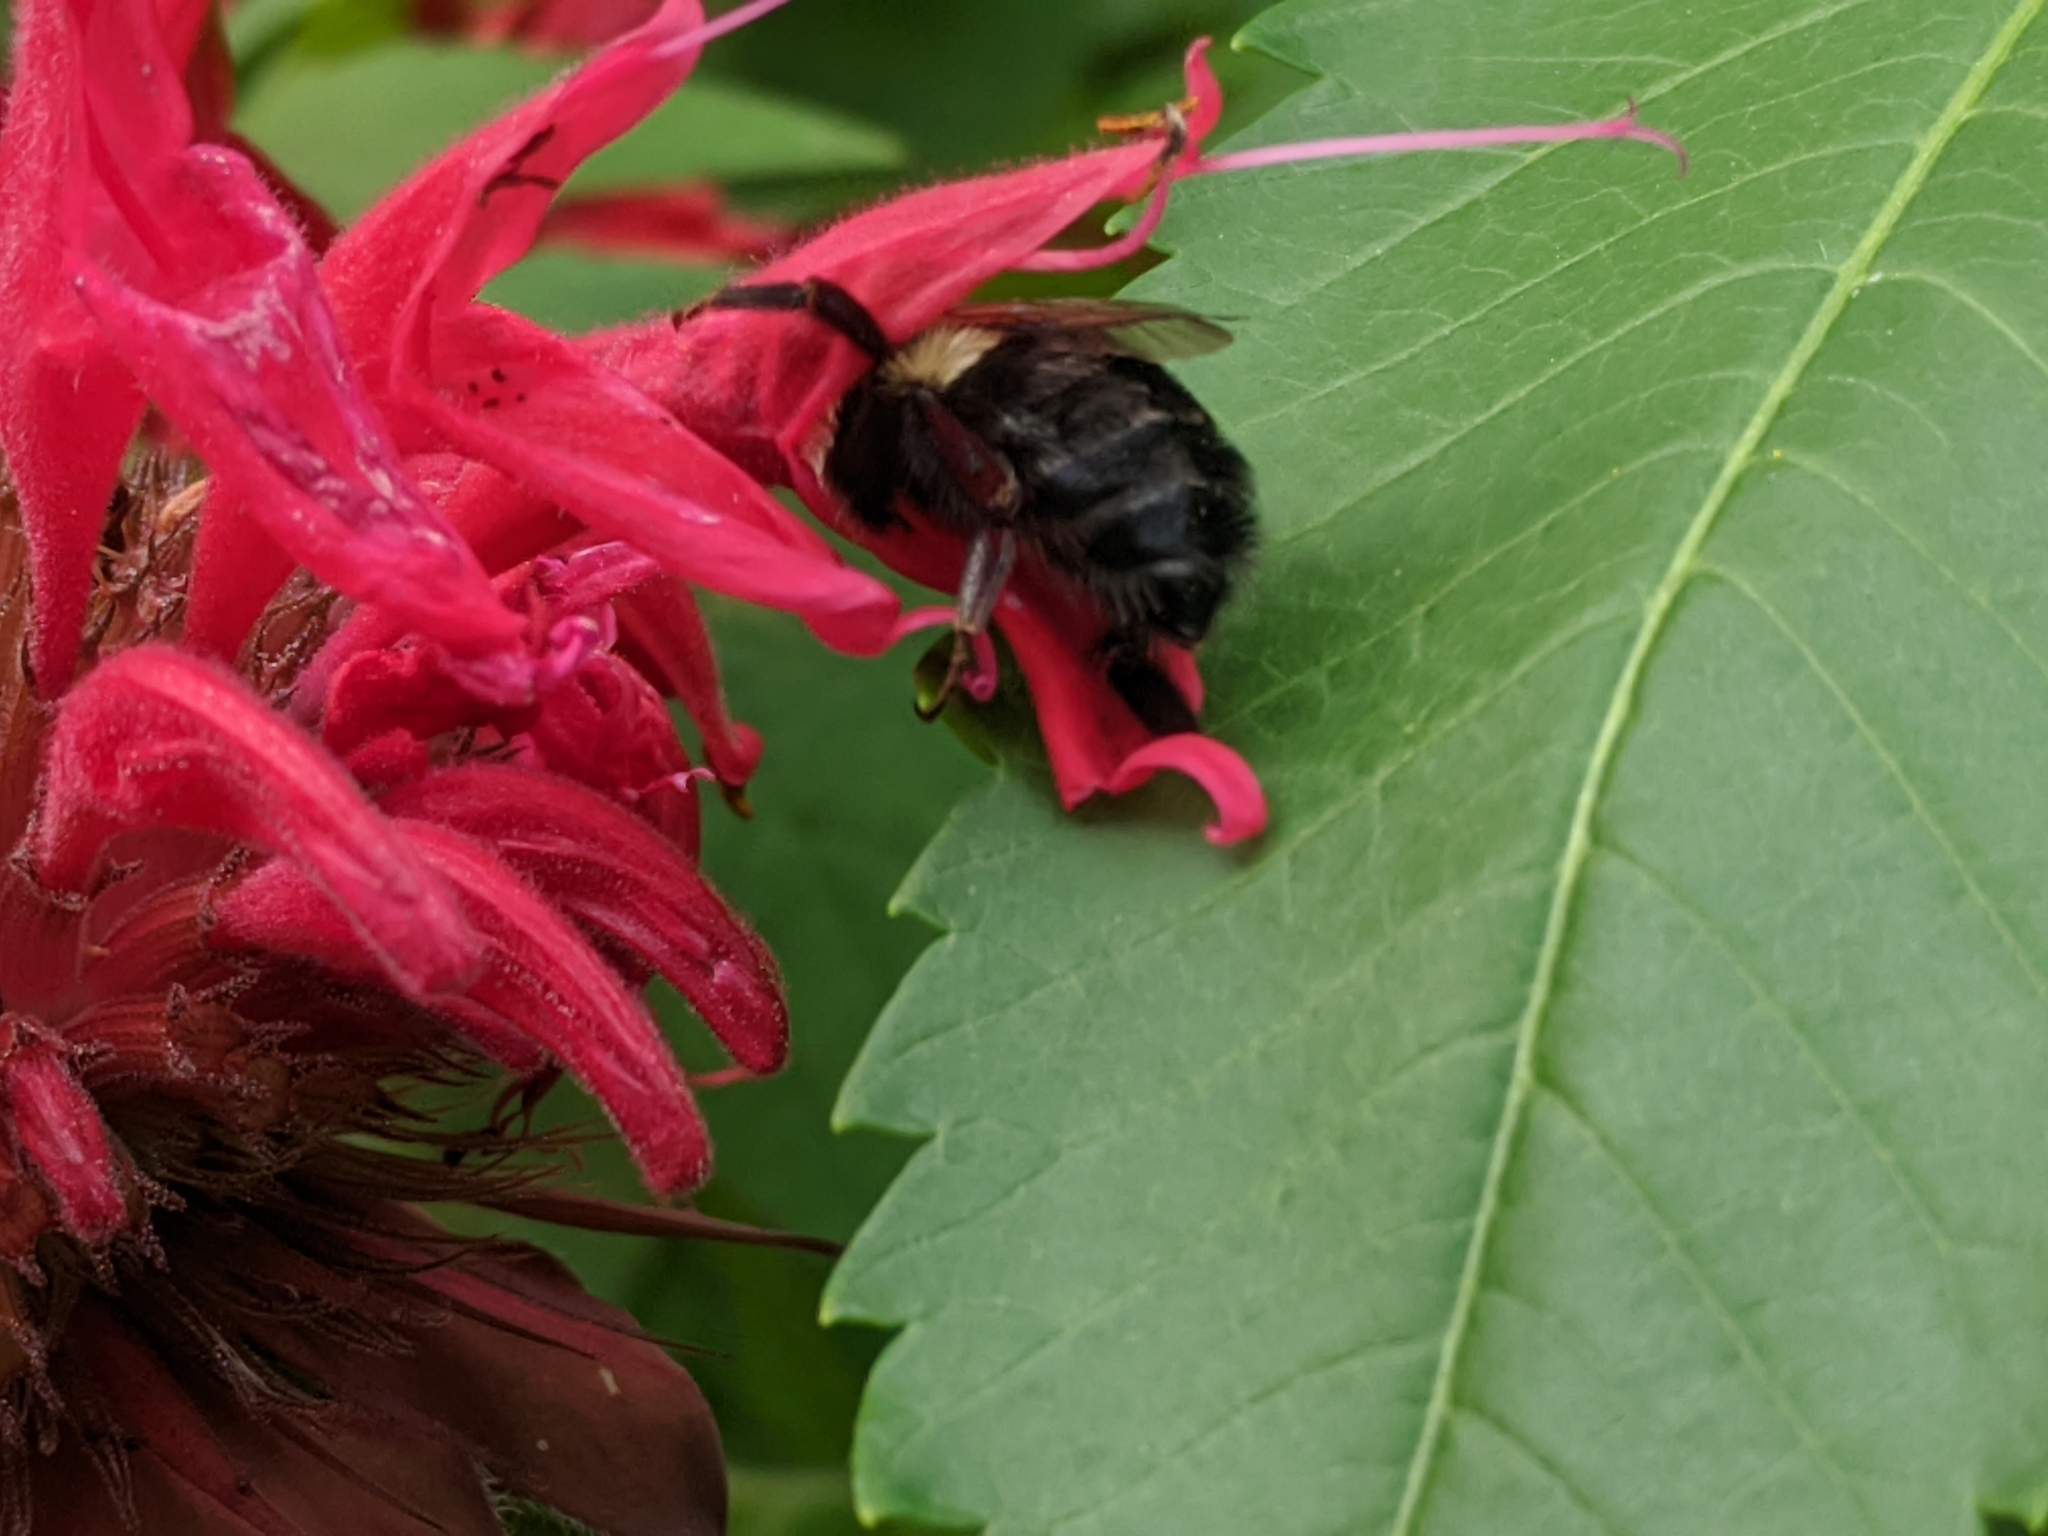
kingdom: Animalia
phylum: Arthropoda
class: Insecta
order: Hymenoptera
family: Apidae
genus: Bombus
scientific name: Bombus impatiens
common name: Common eastern bumble bee
